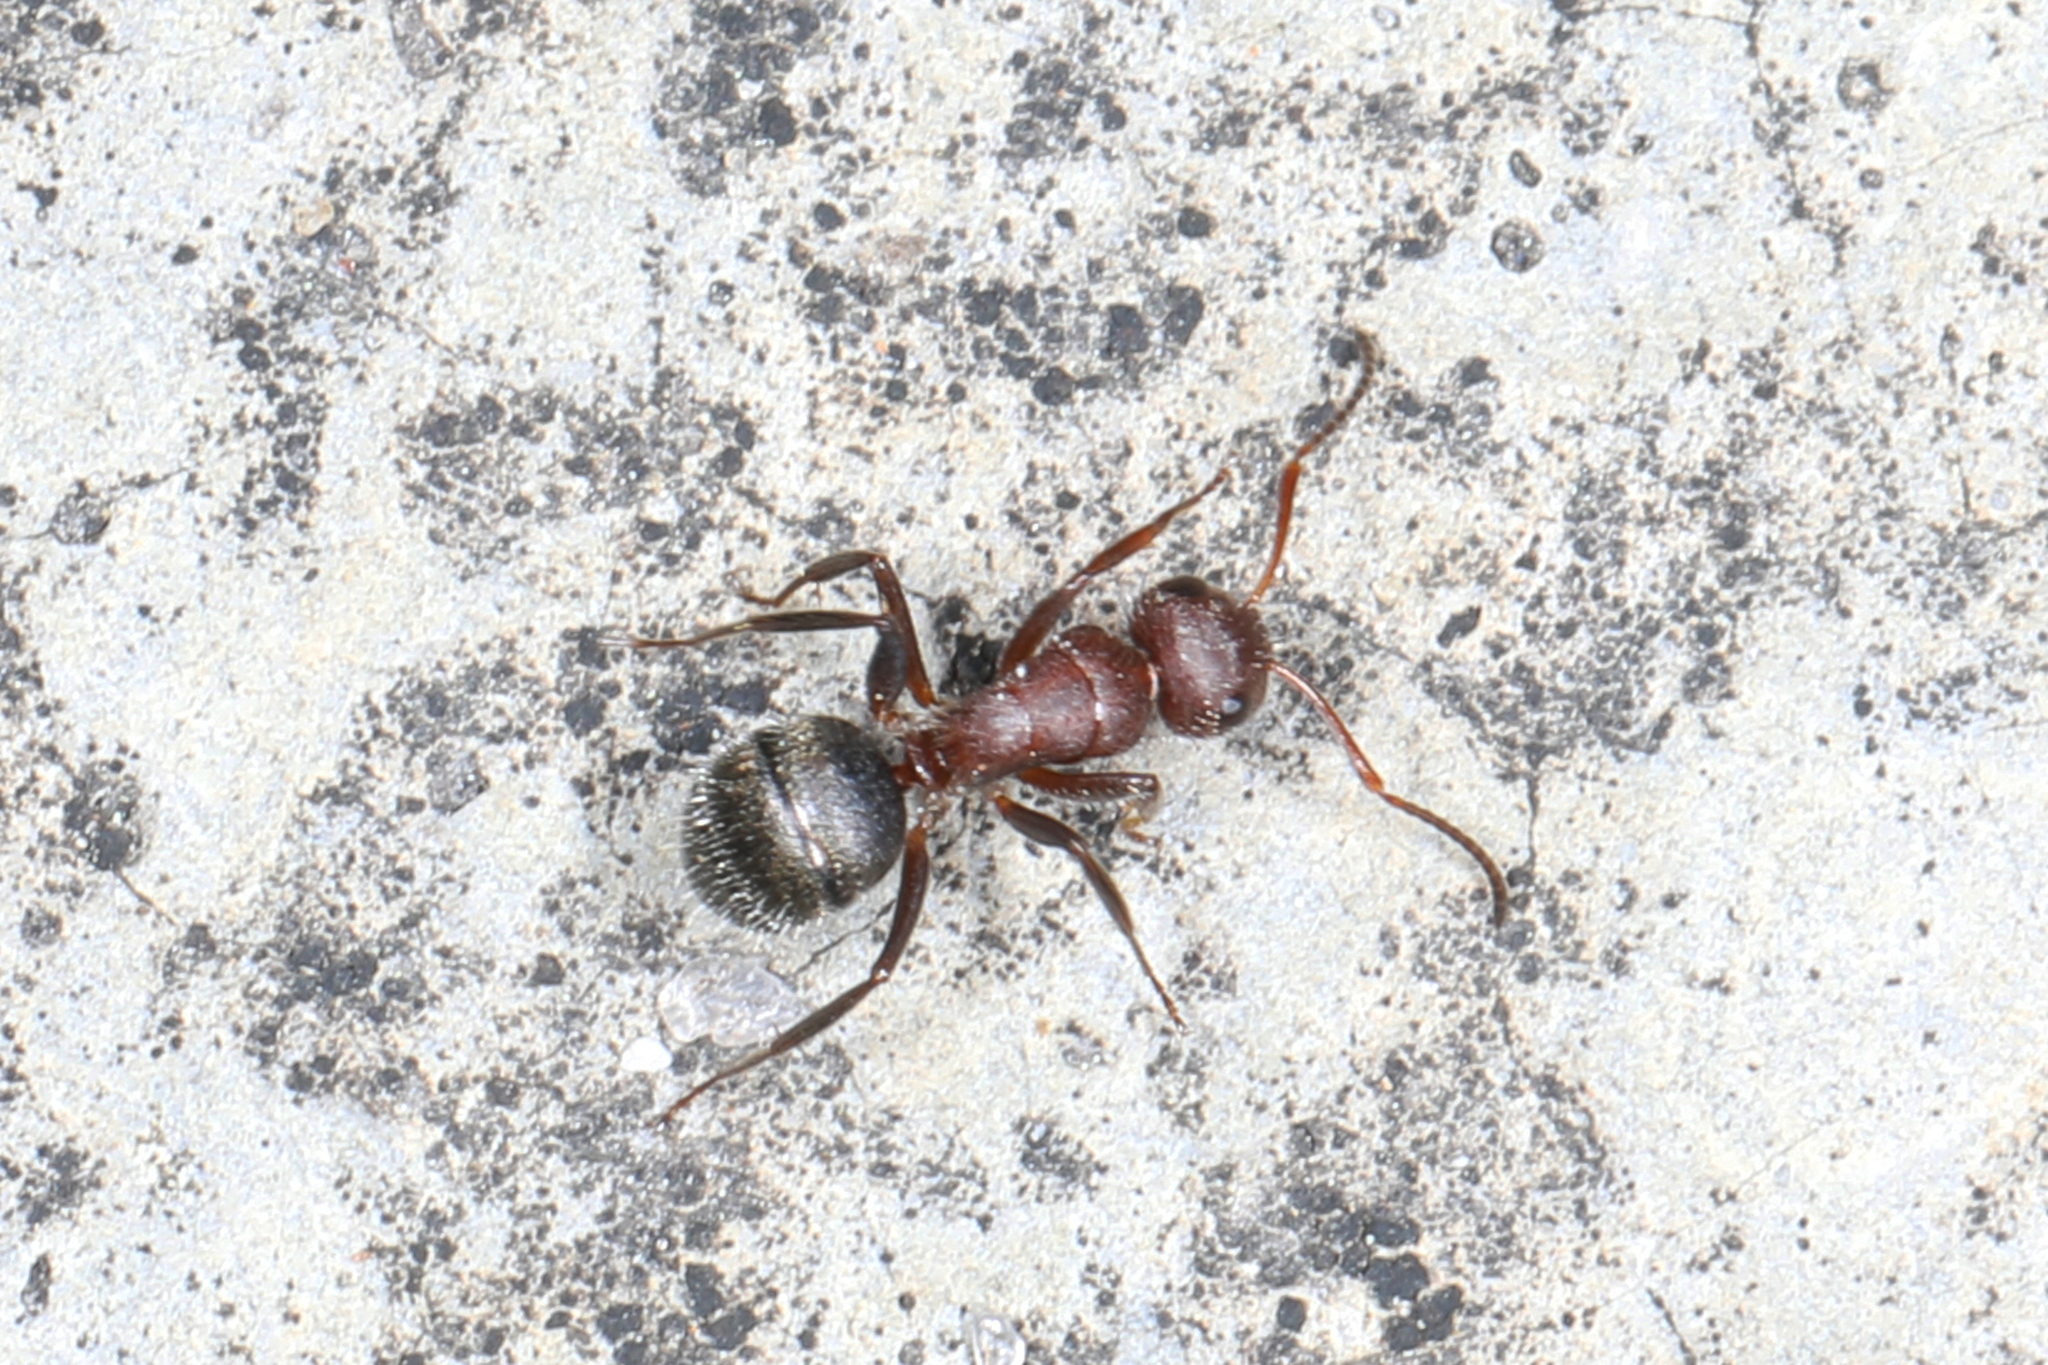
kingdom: Animalia
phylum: Arthropoda
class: Insecta
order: Hymenoptera
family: Formicidae
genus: Camponotus
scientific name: Camponotus planatus
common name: Compact carpenter ant
